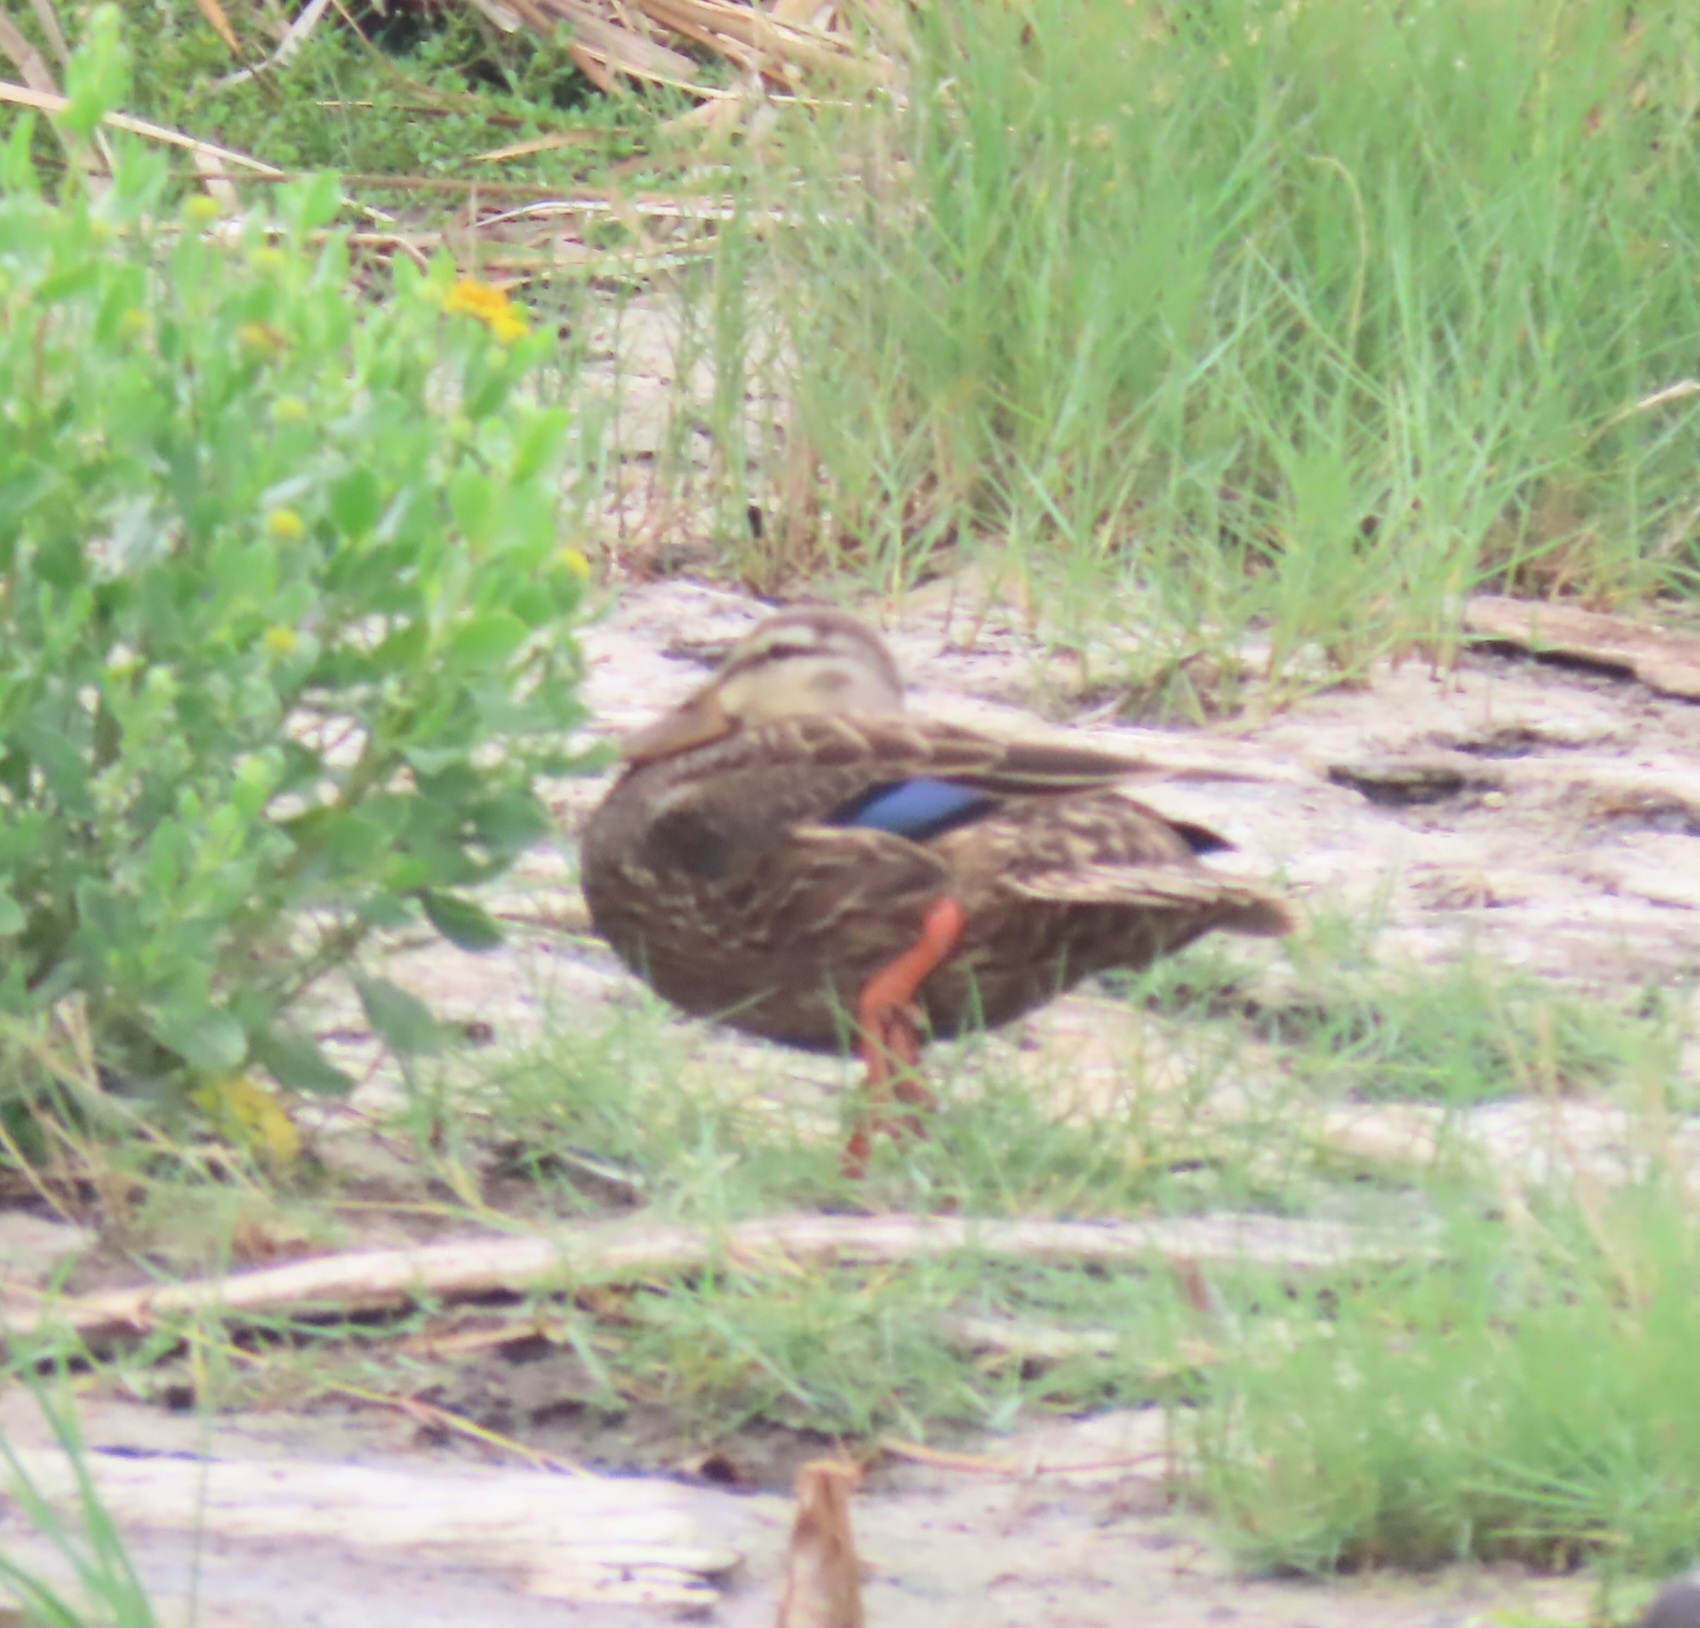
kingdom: Animalia
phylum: Chordata
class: Aves
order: Anseriformes
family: Anatidae
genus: Anas
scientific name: Anas fulvigula
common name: Mottled duck
